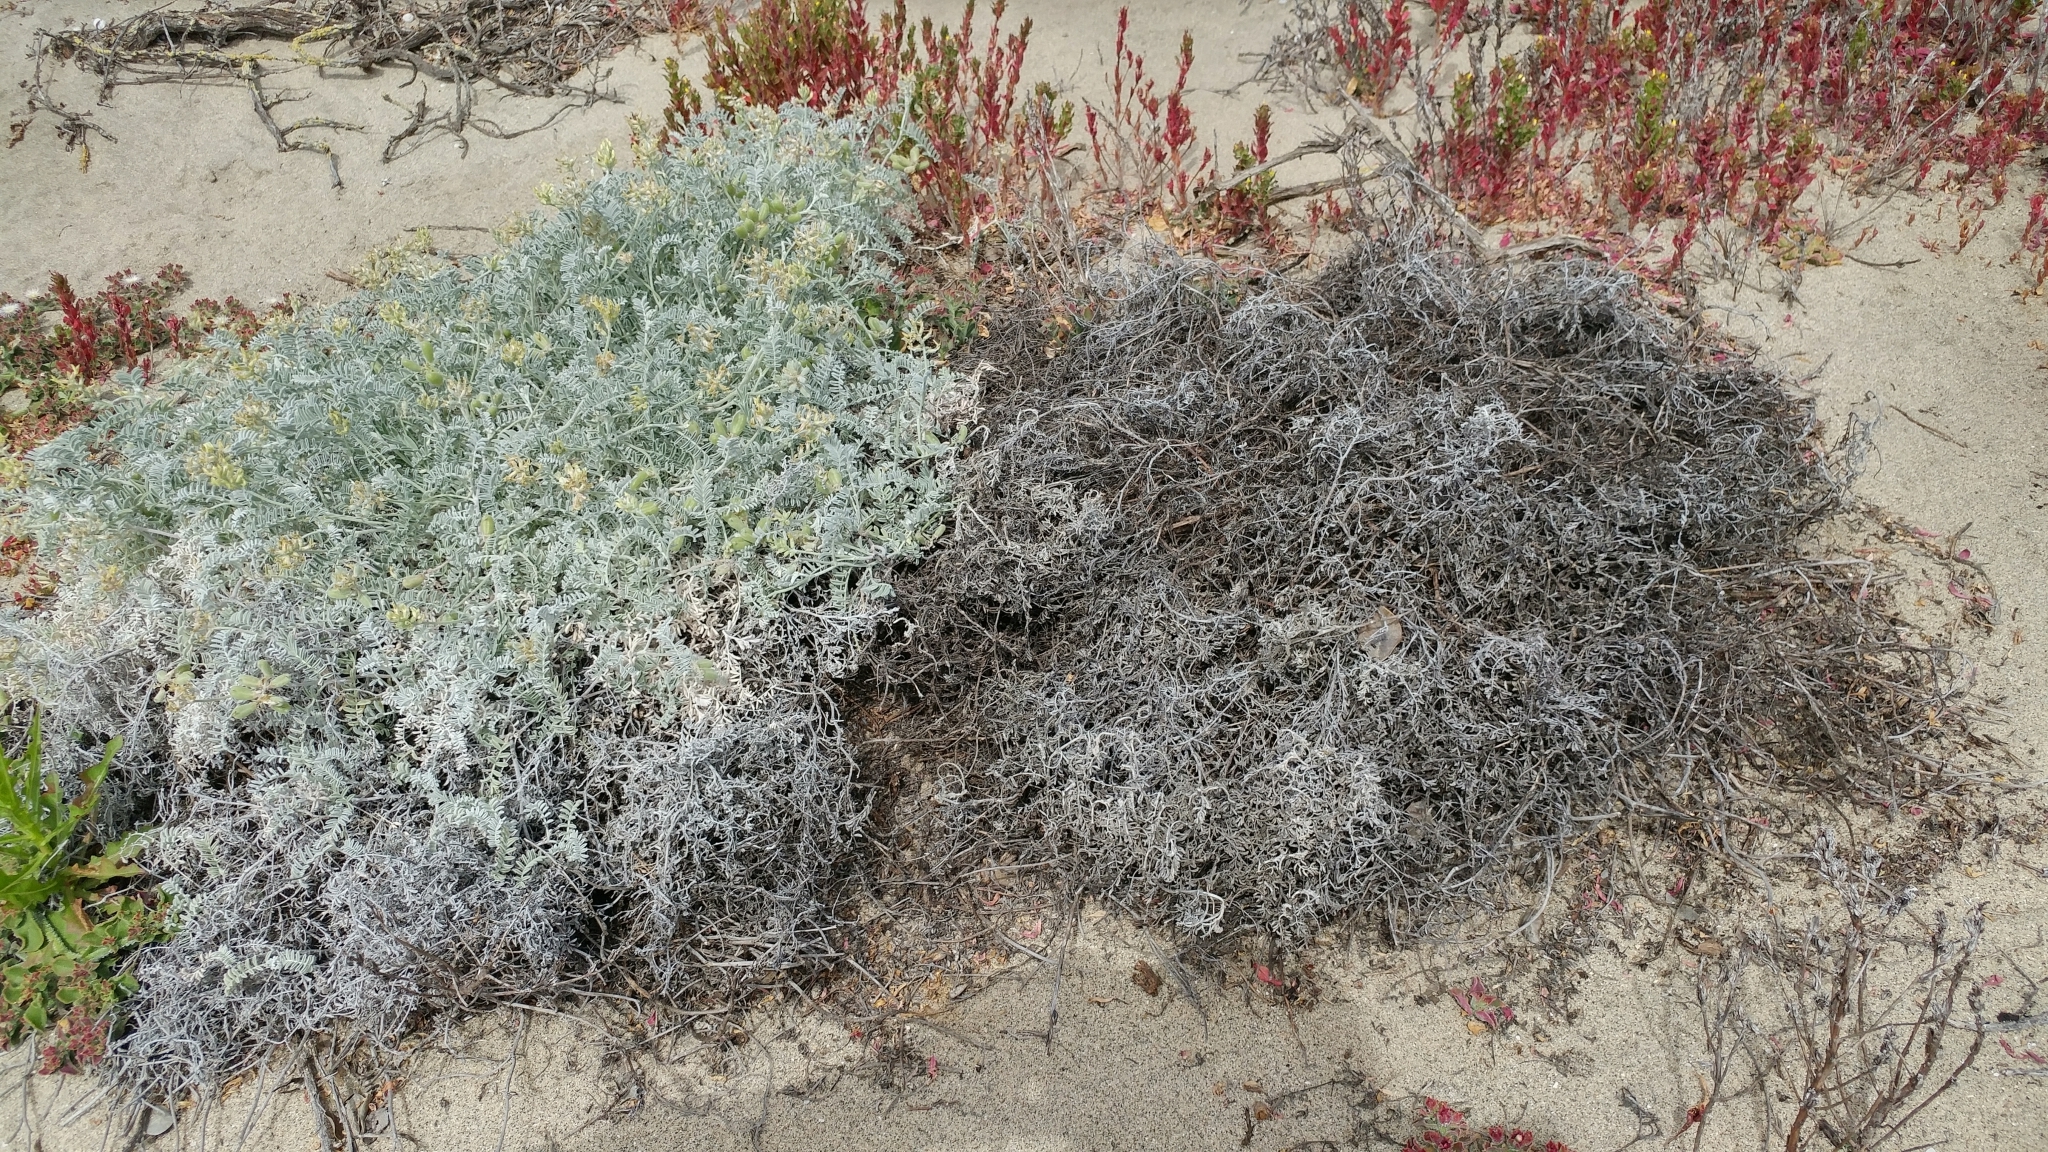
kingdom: Plantae
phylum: Tracheophyta
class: Magnoliopsida
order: Fabales
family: Fabaceae
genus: Astragalus
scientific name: Astragalus miguelensis
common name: San miguel milk-vetch
